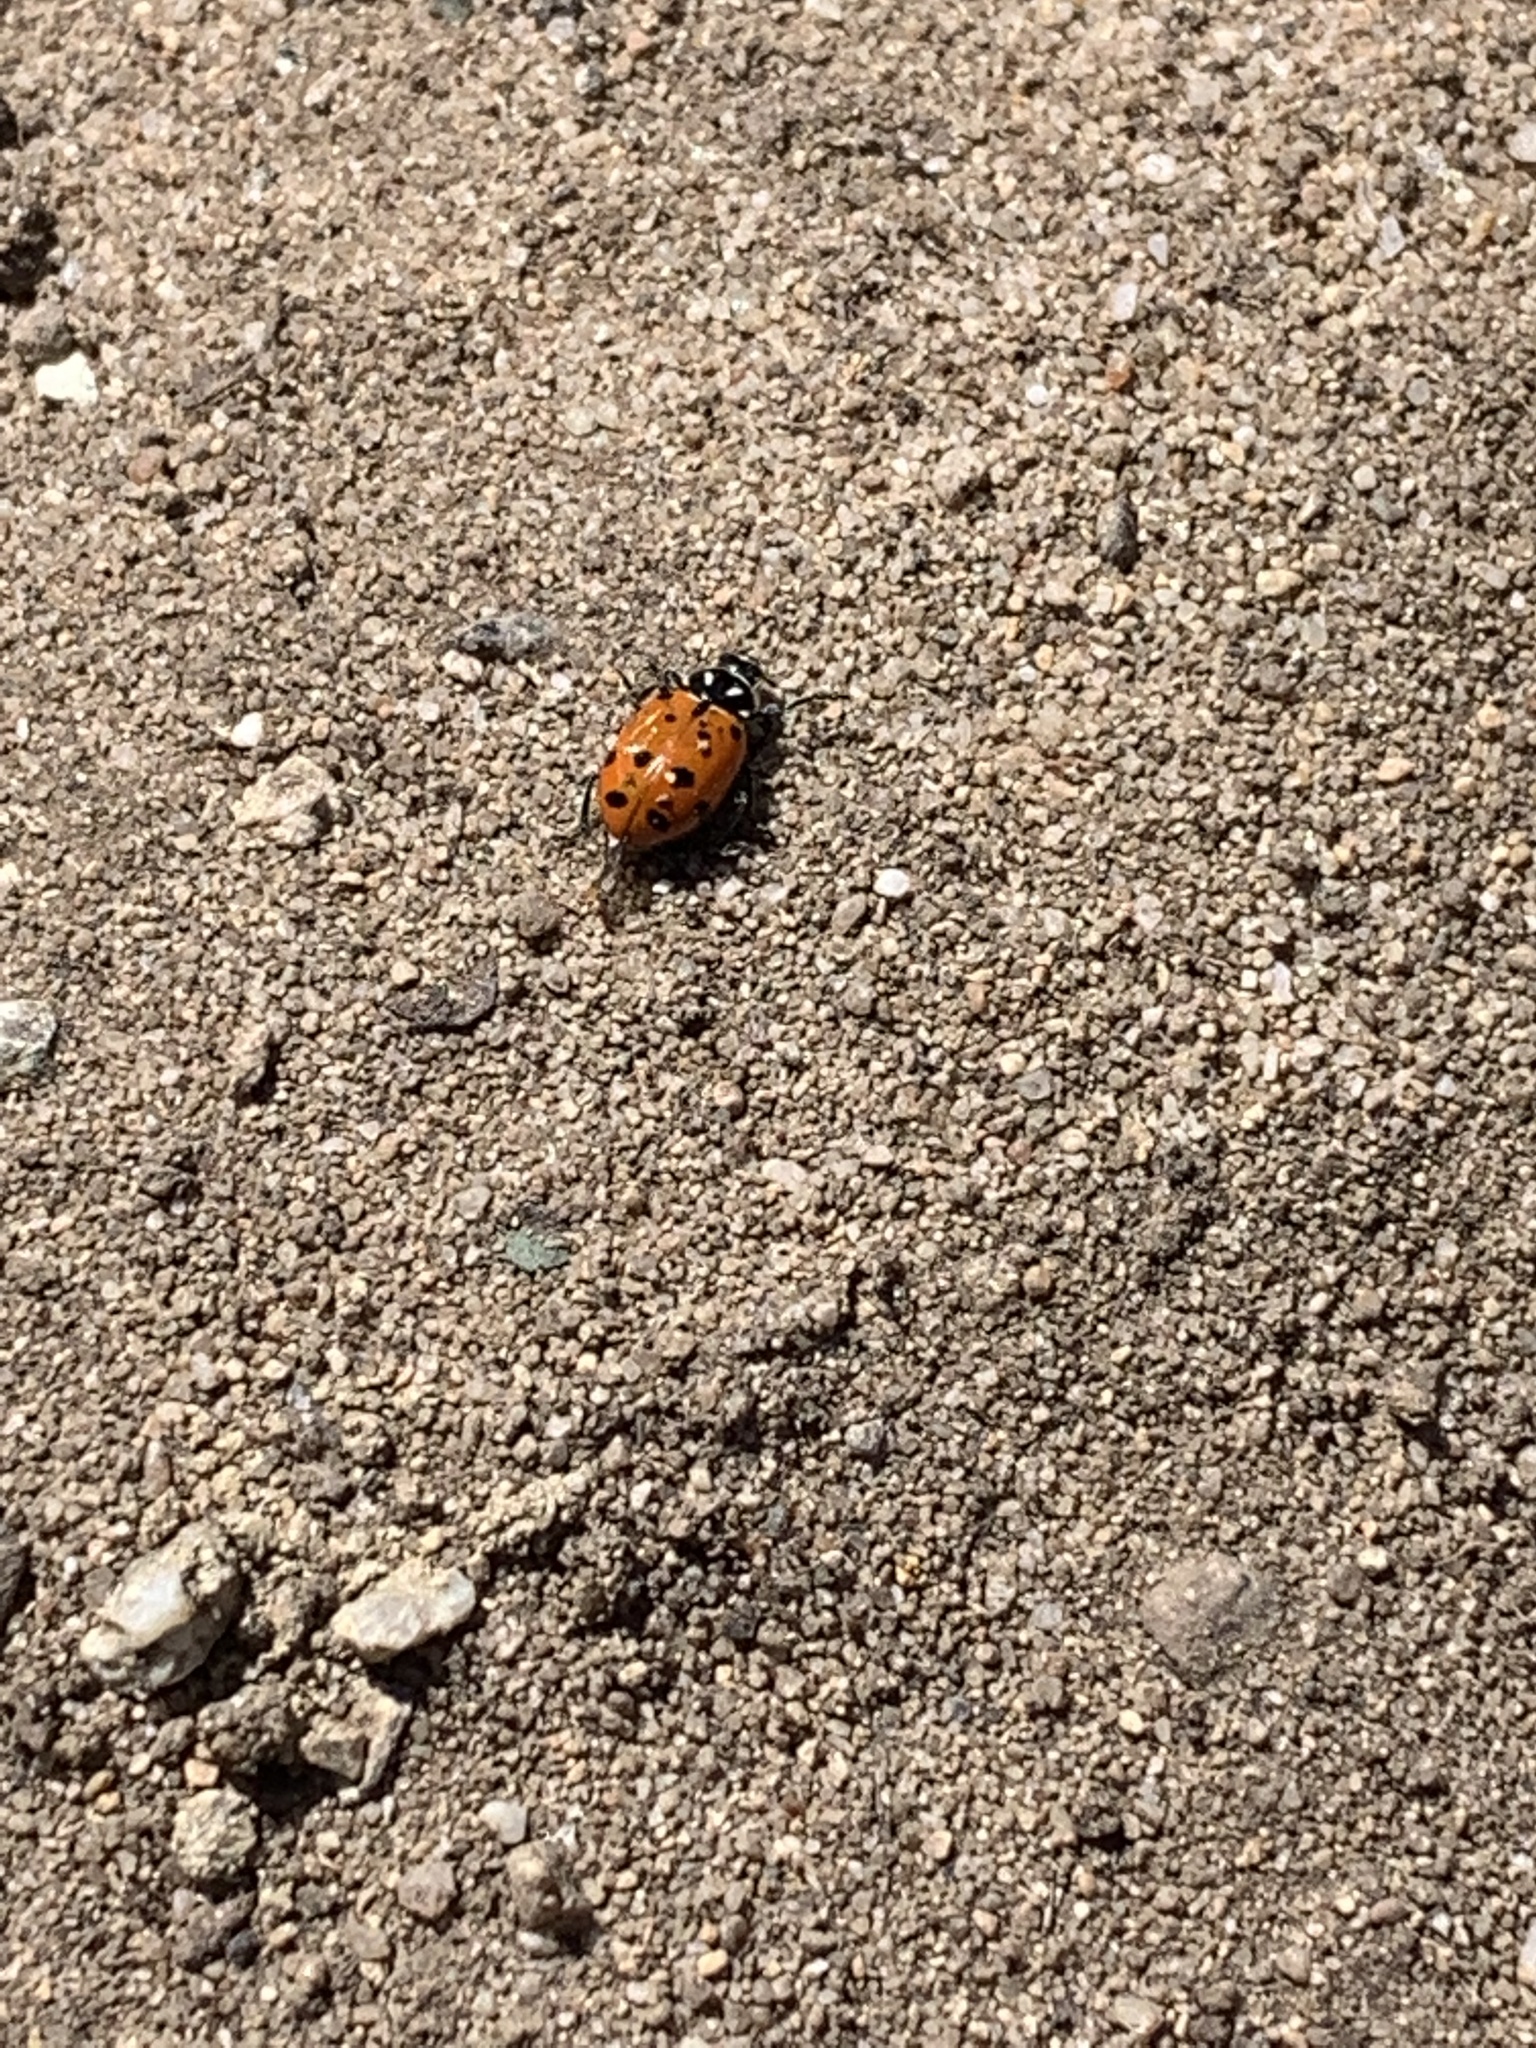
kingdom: Animalia
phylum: Arthropoda
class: Insecta
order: Coleoptera
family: Coccinellidae
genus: Hippodamia
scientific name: Hippodamia convergens
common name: Convergent lady beetle
